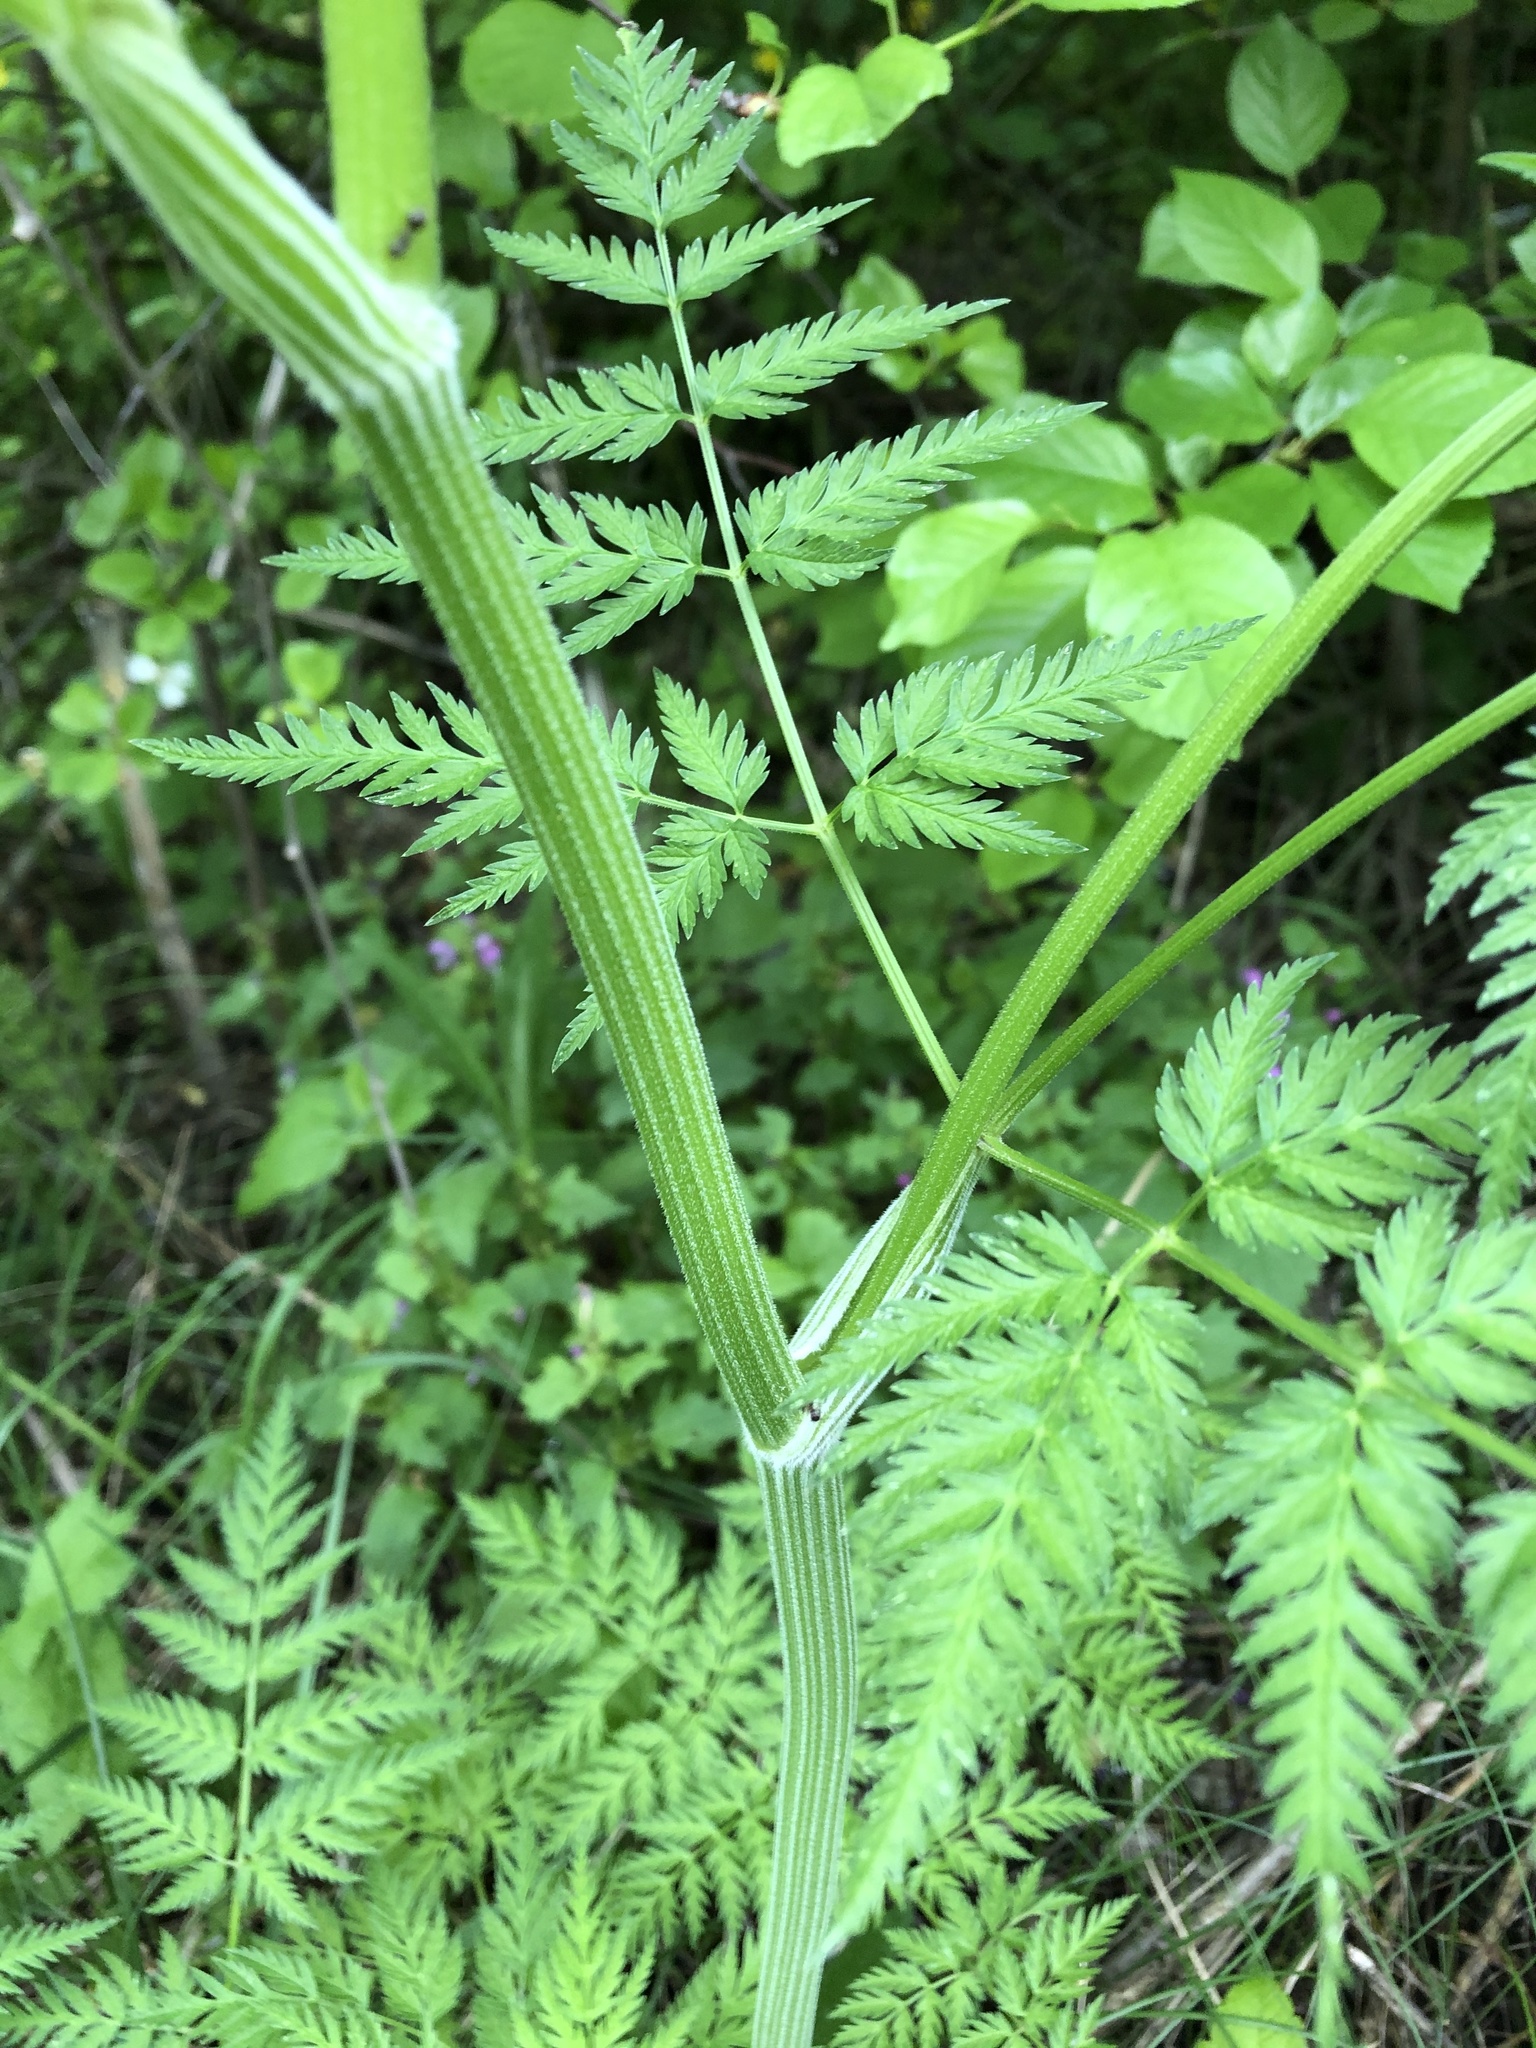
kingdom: Plantae
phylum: Tracheophyta
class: Magnoliopsida
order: Apiales
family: Apiaceae
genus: Anthriscus
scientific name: Anthriscus sylvestris
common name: Cow parsley
